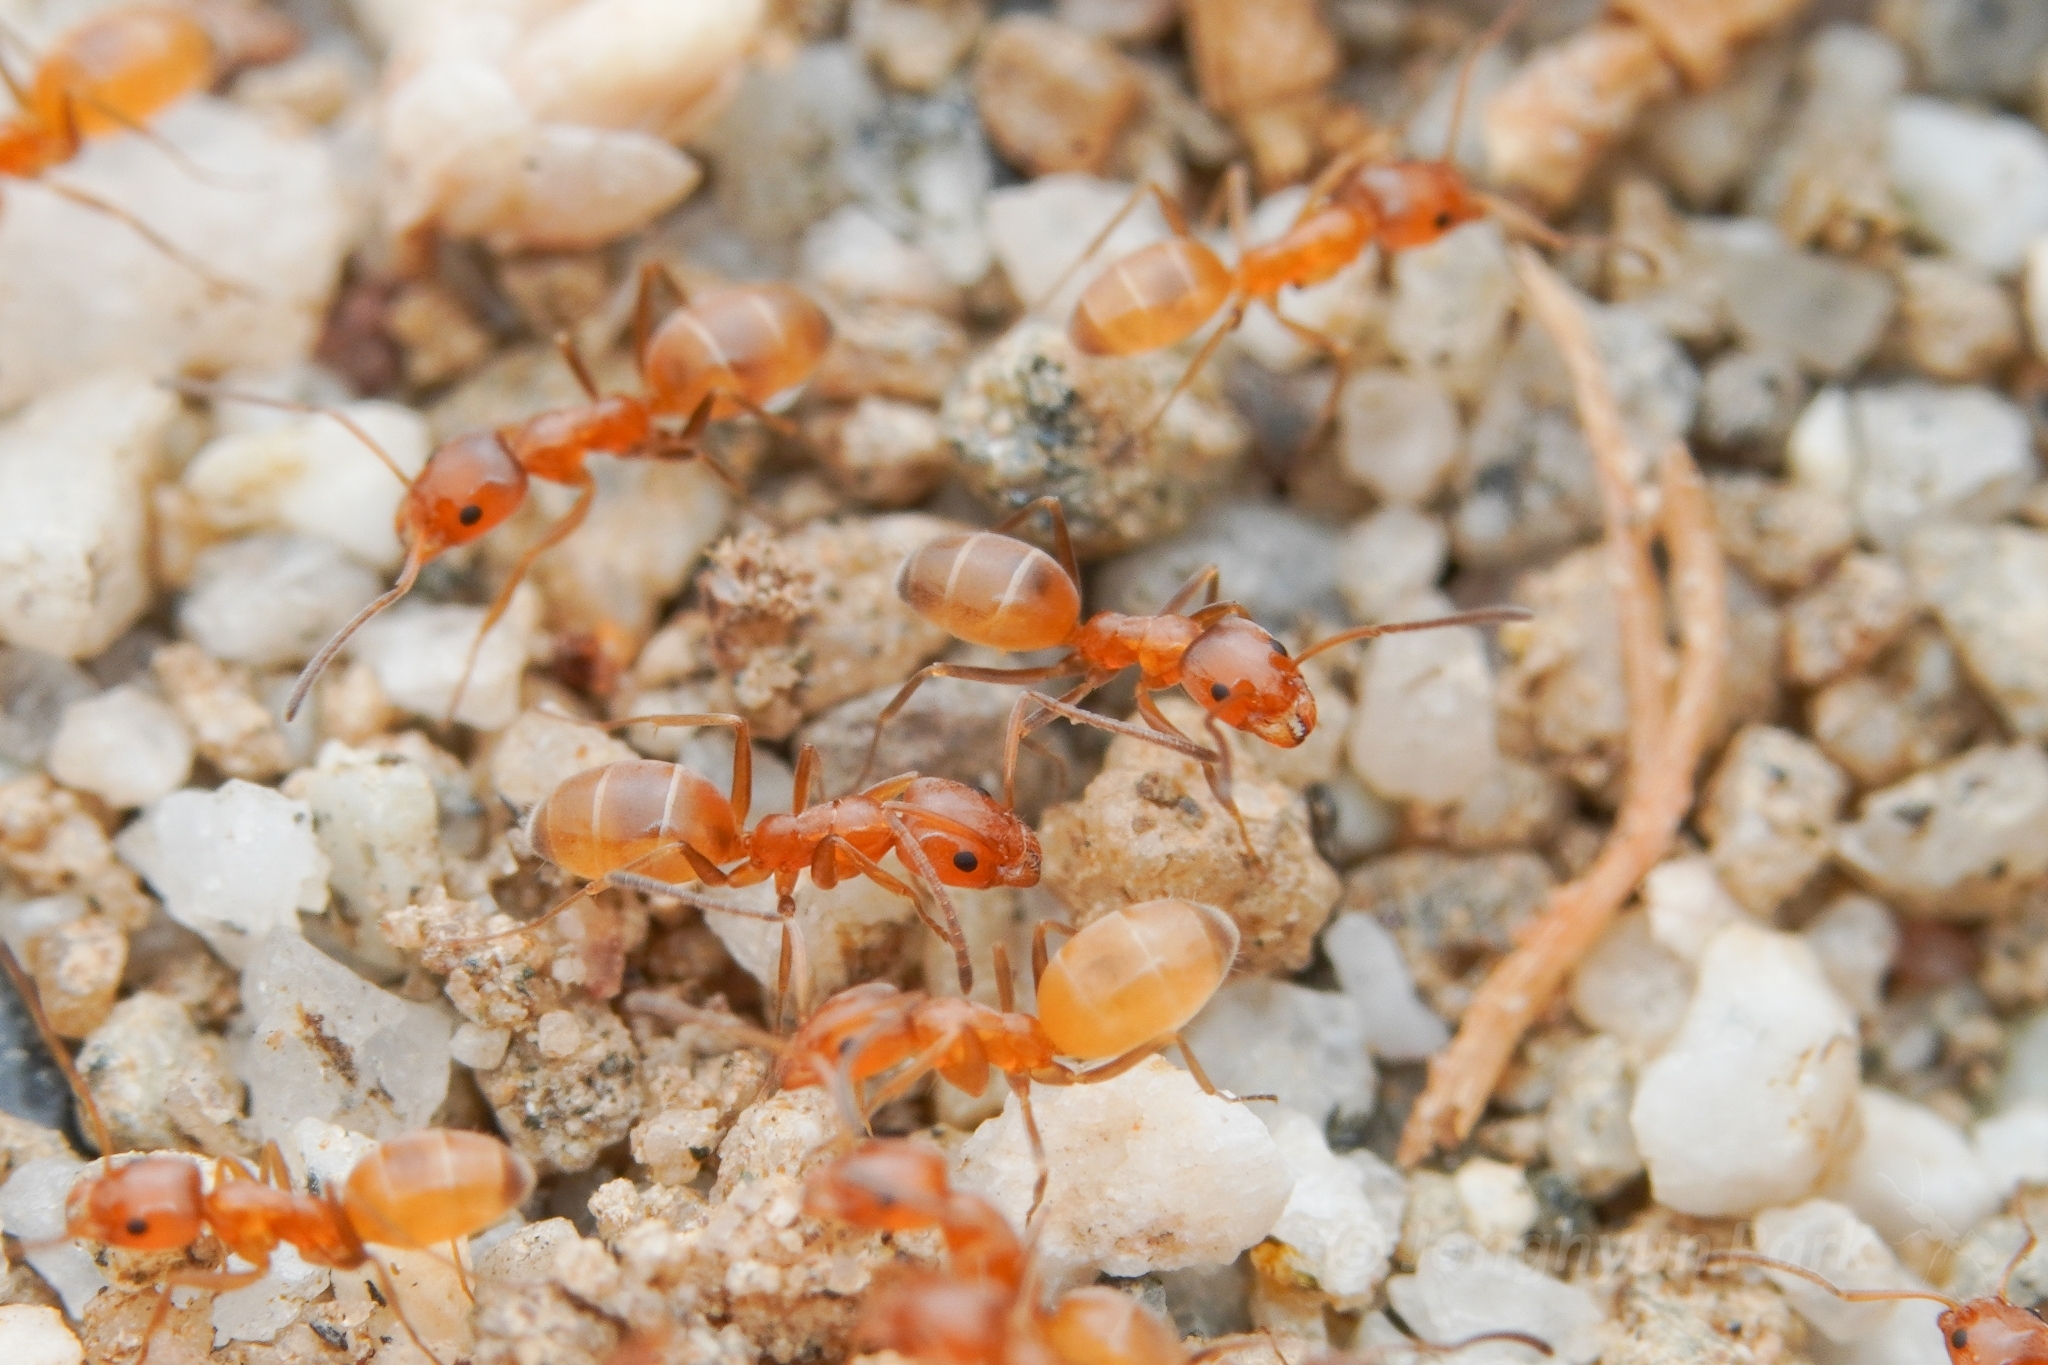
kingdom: Animalia
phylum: Arthropoda
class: Insecta
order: Hymenoptera
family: Formicidae
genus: Forelius
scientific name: Forelius pruinosus
